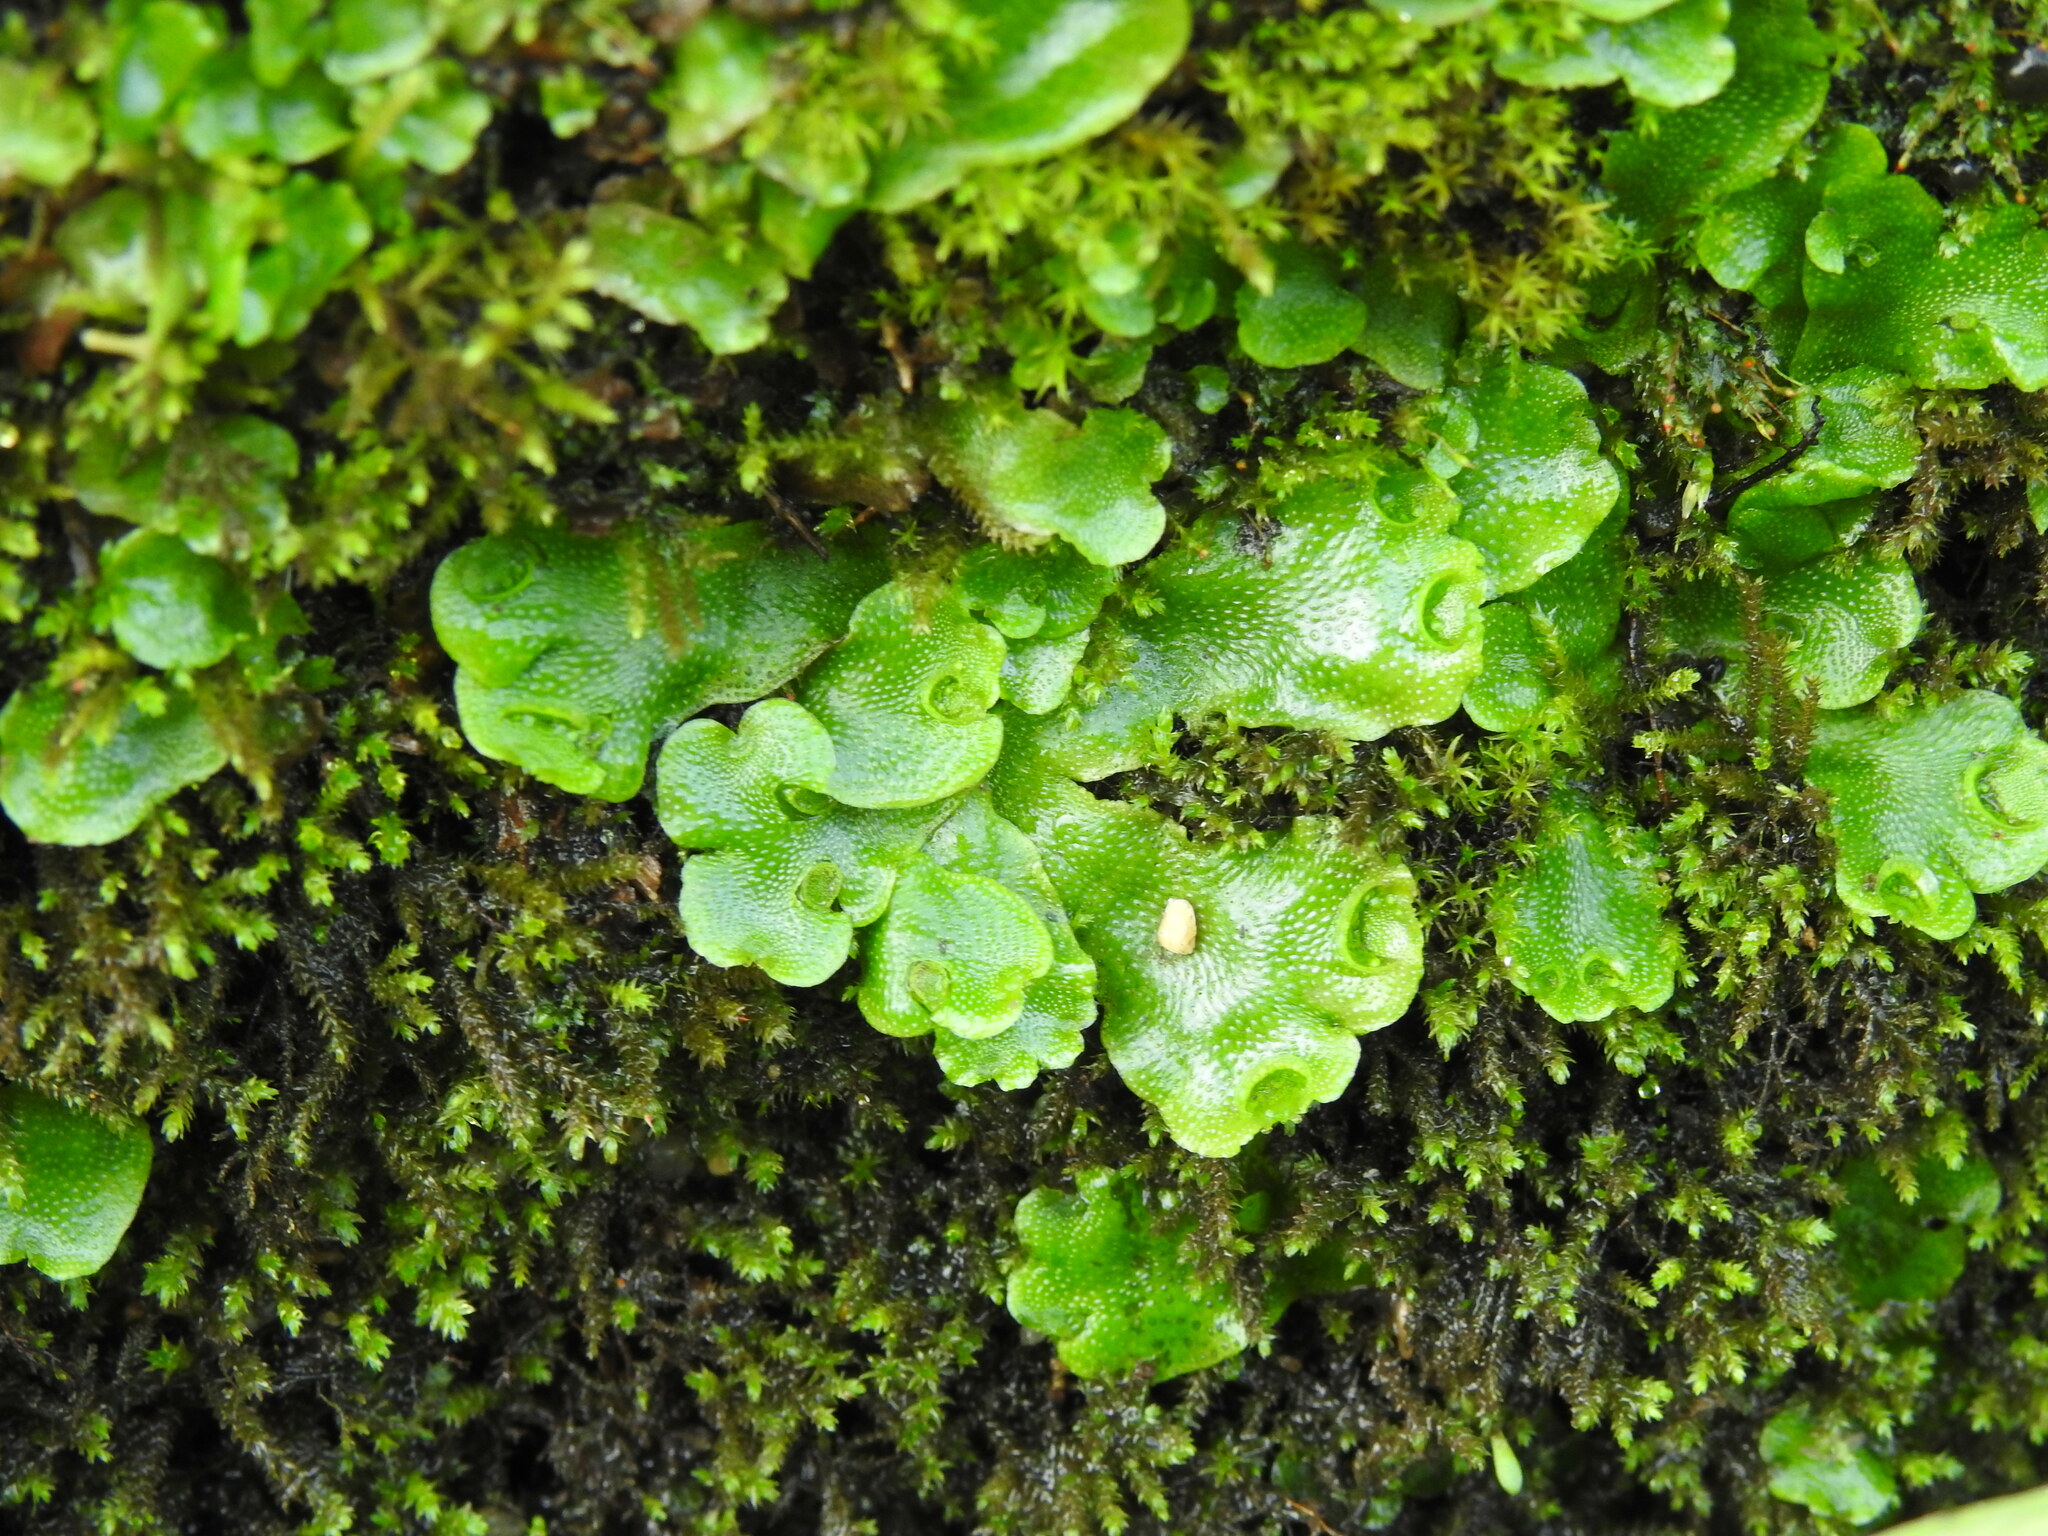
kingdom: Plantae
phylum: Marchantiophyta
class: Marchantiopsida
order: Lunulariales
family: Lunulariaceae
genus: Lunularia
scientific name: Lunularia cruciata
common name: Crescent-cup liverwort
